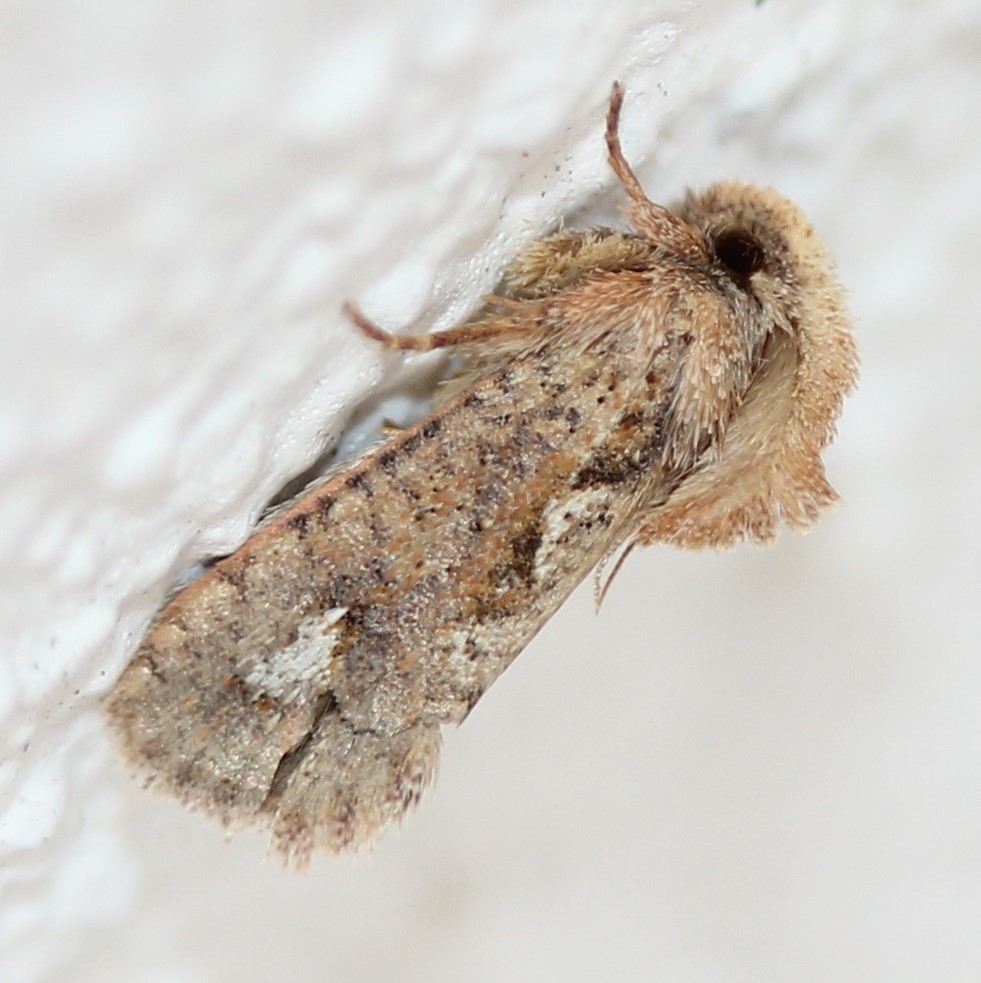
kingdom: Animalia
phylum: Arthropoda
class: Insecta
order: Lepidoptera
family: Tineidae
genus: Acrolophus
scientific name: Acrolophus walsinghami
